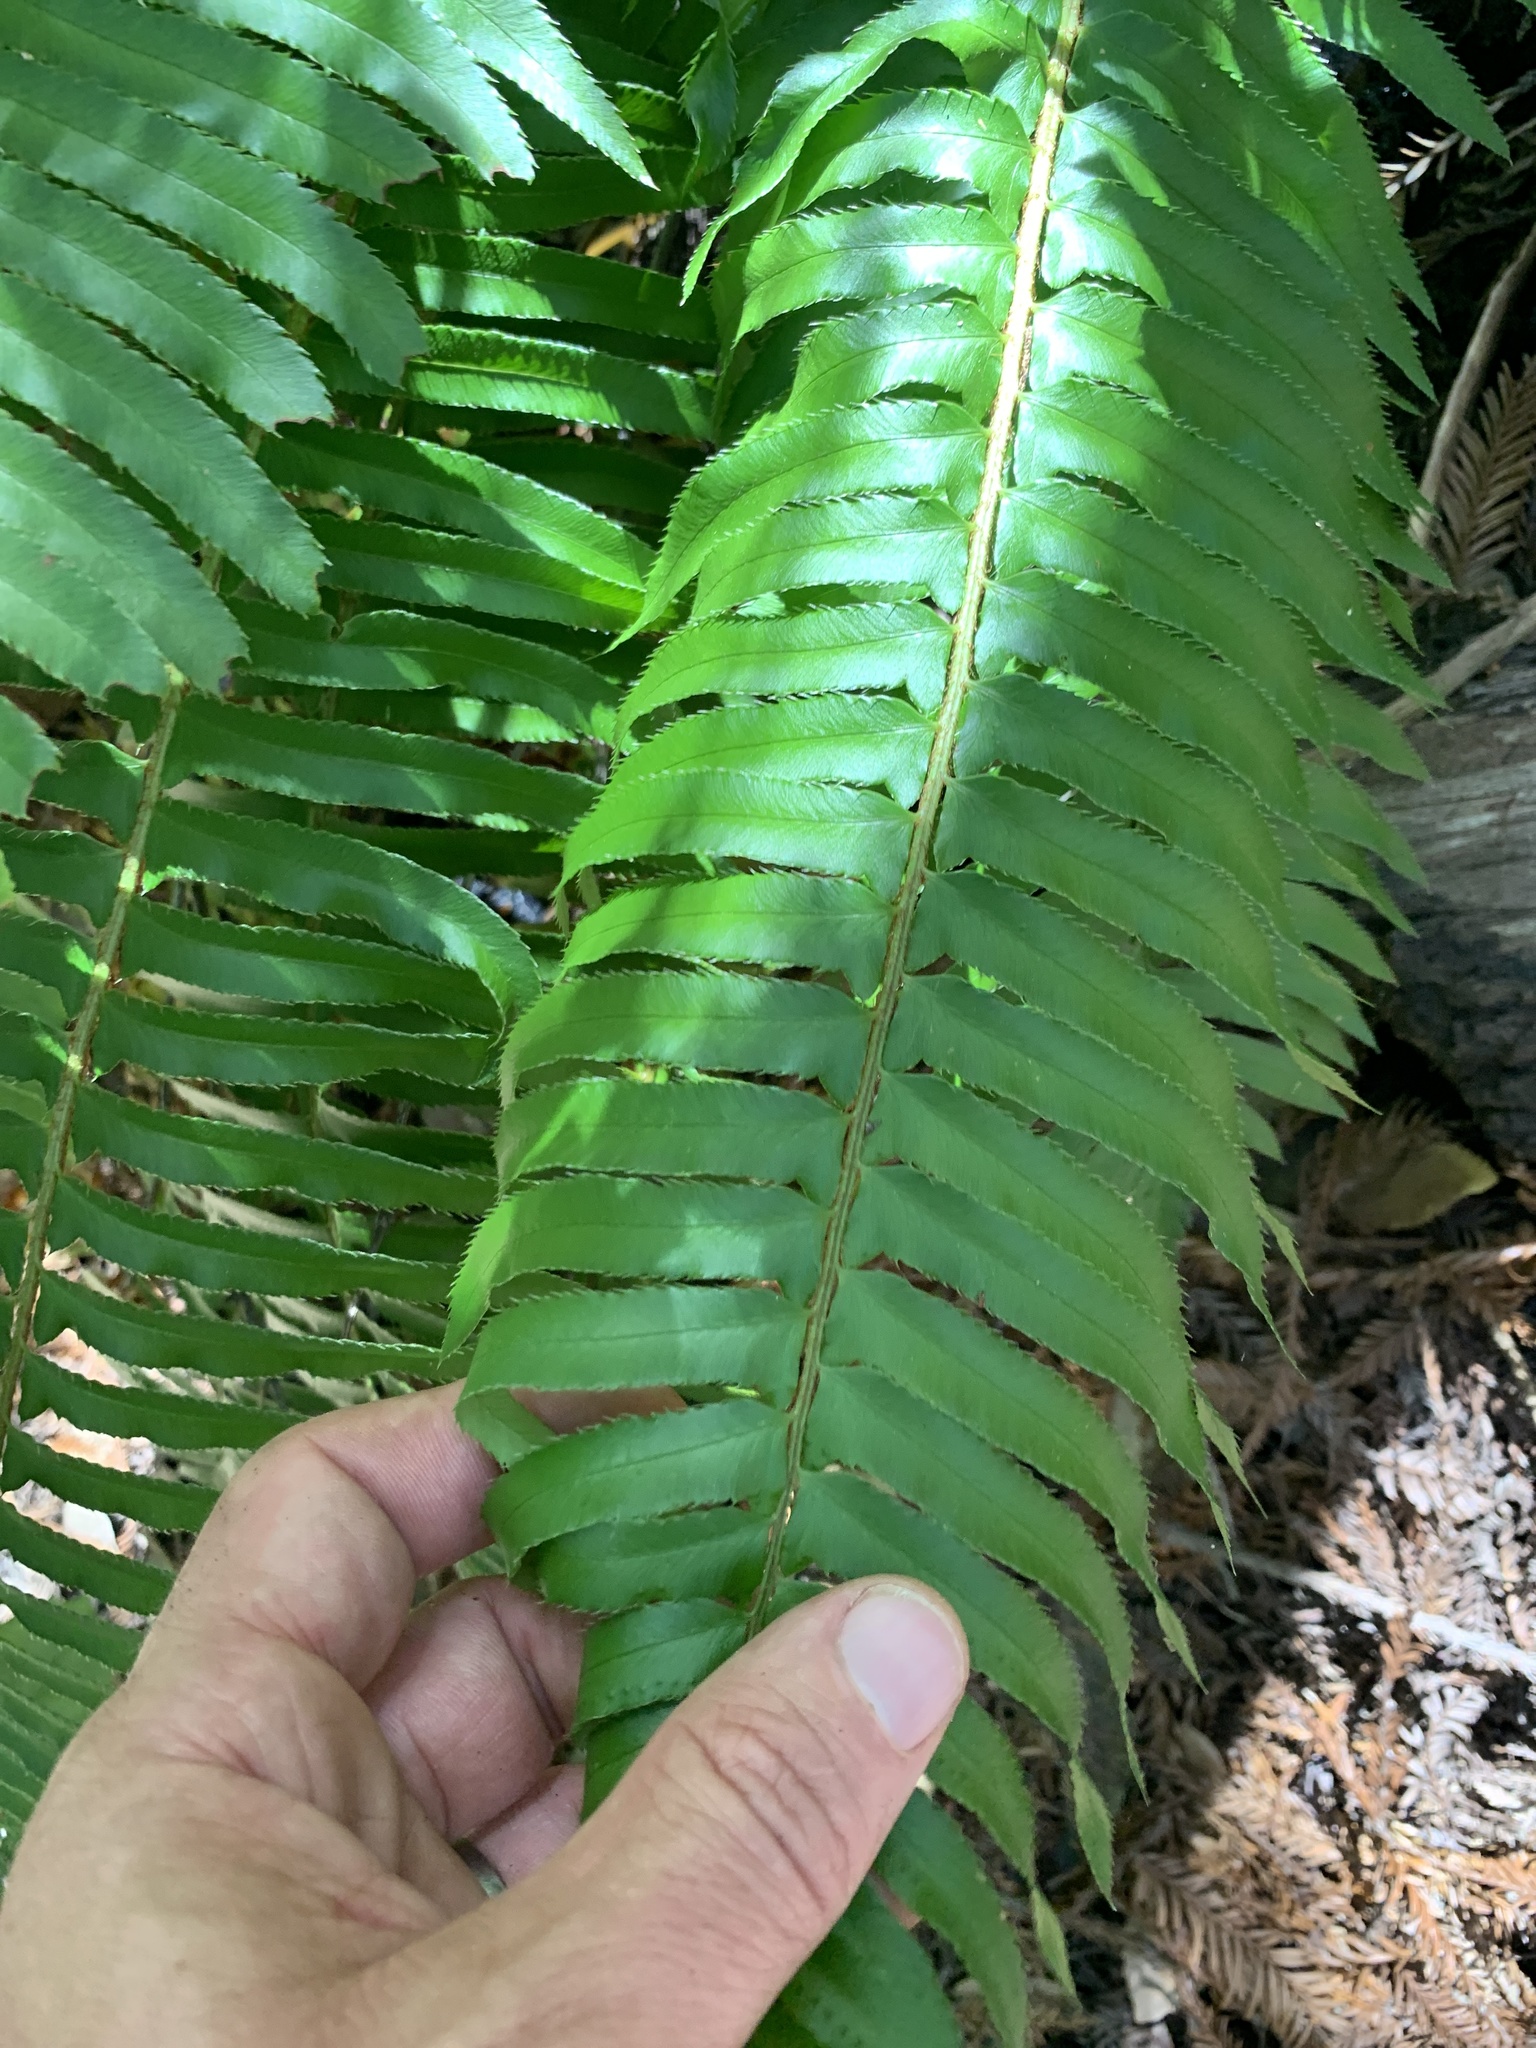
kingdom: Plantae
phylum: Tracheophyta
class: Polypodiopsida
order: Polypodiales
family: Dryopteridaceae
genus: Polystichum
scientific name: Polystichum munitum
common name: Western sword-fern
